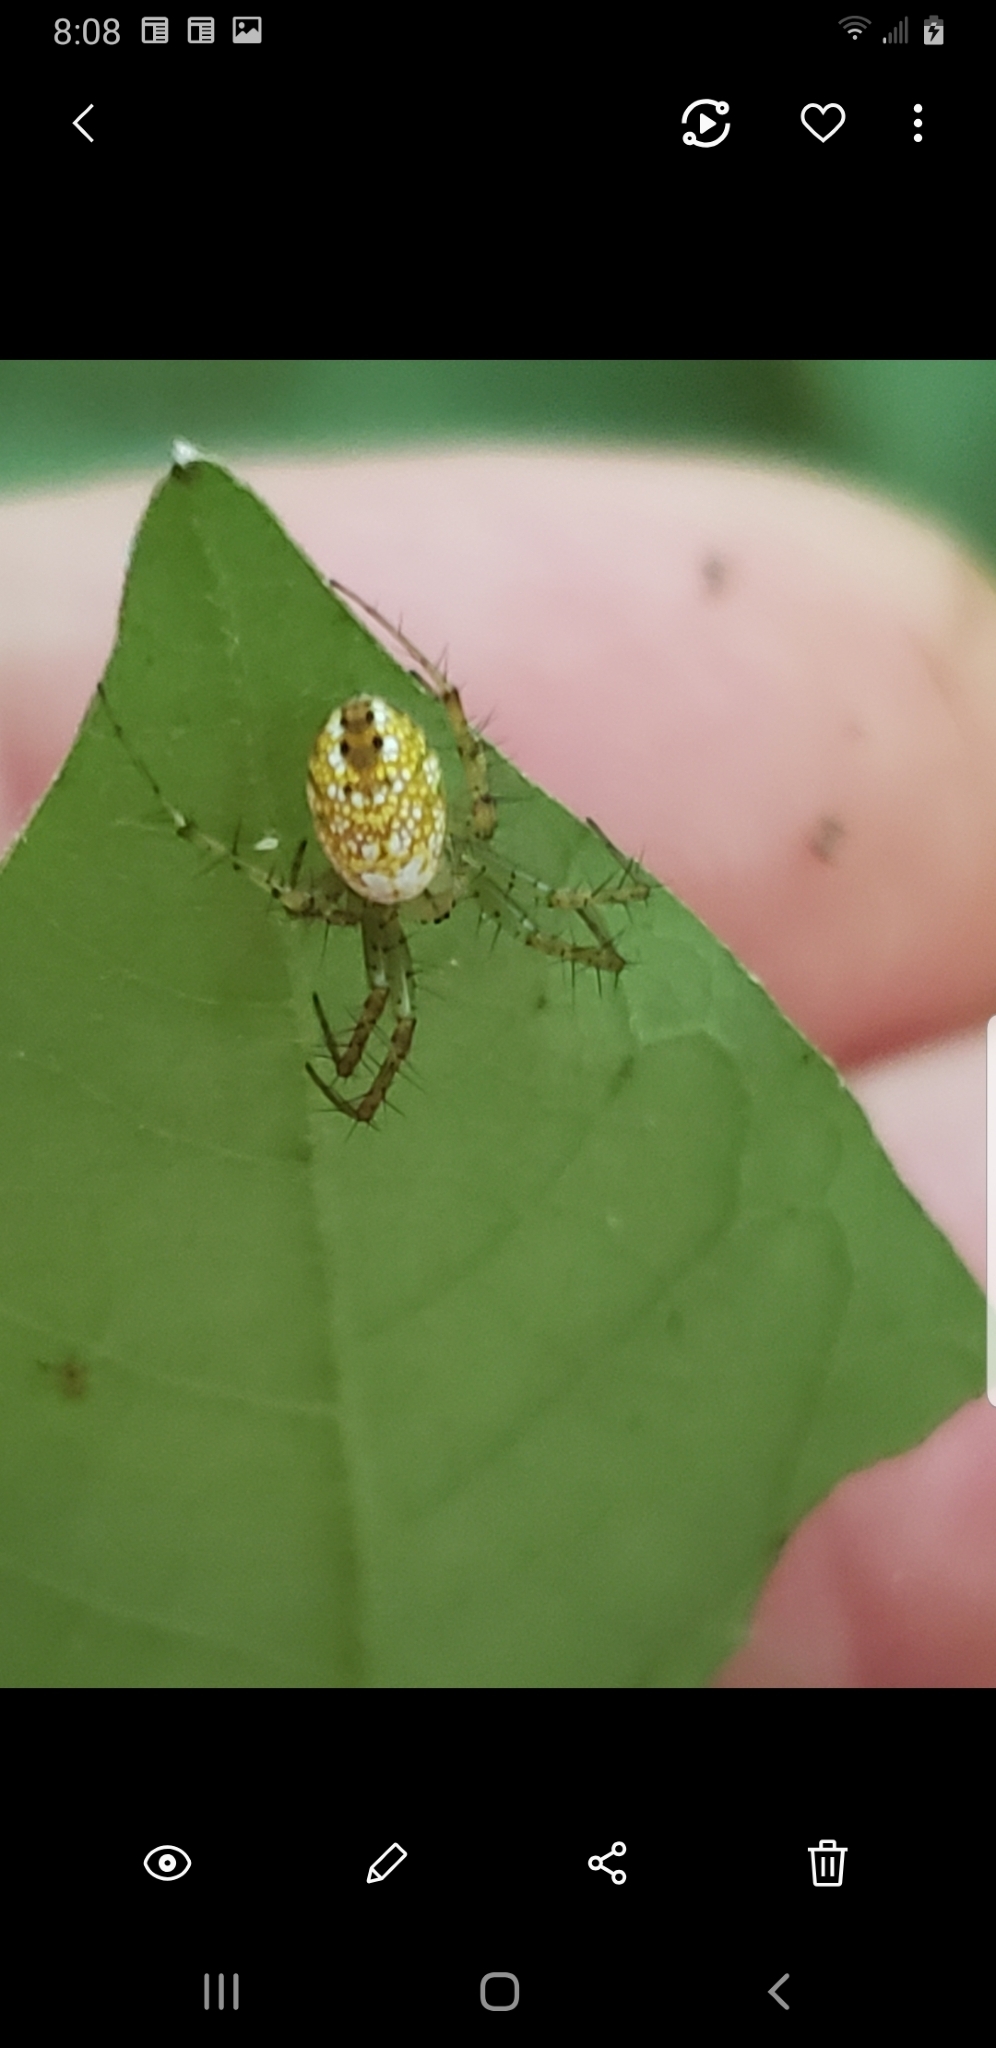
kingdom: Animalia
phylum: Arthropoda
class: Arachnida
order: Araneae
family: Araneidae
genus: Mangora
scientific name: Mangora maculata
